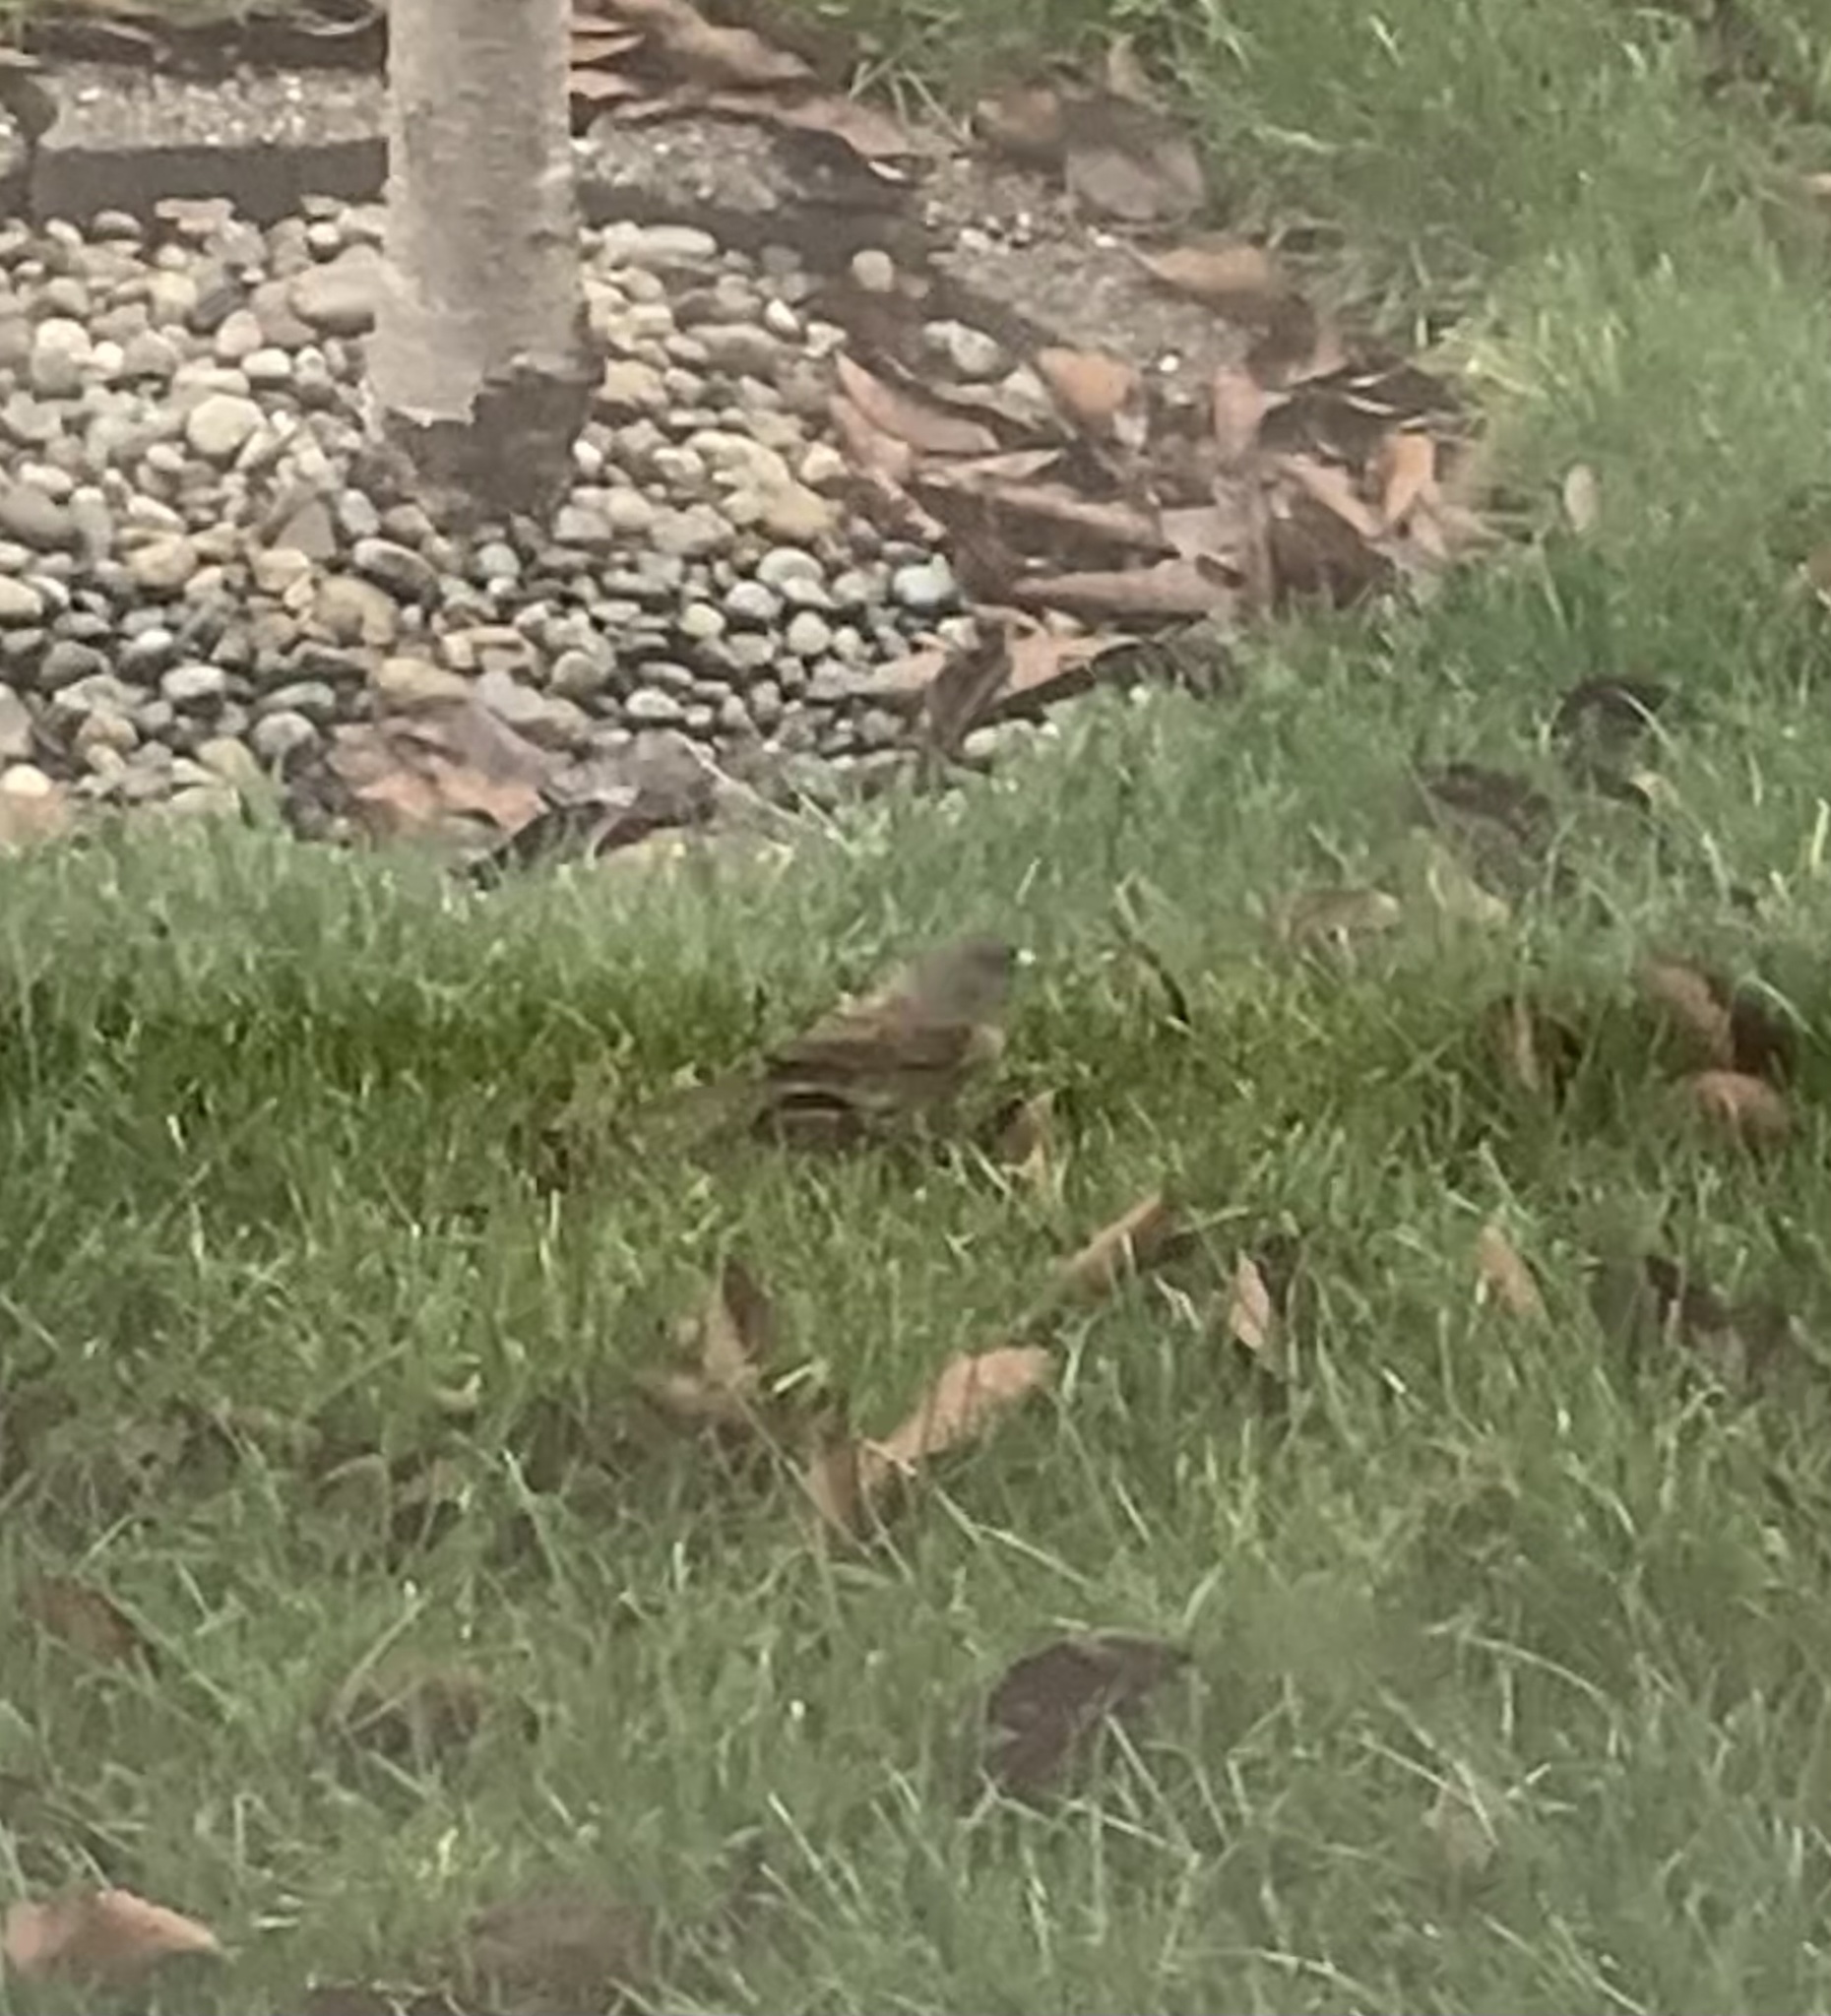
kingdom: Animalia
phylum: Chordata
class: Aves
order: Passeriformes
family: Passerellidae
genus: Junco
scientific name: Junco hyemalis
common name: Dark-eyed junco
